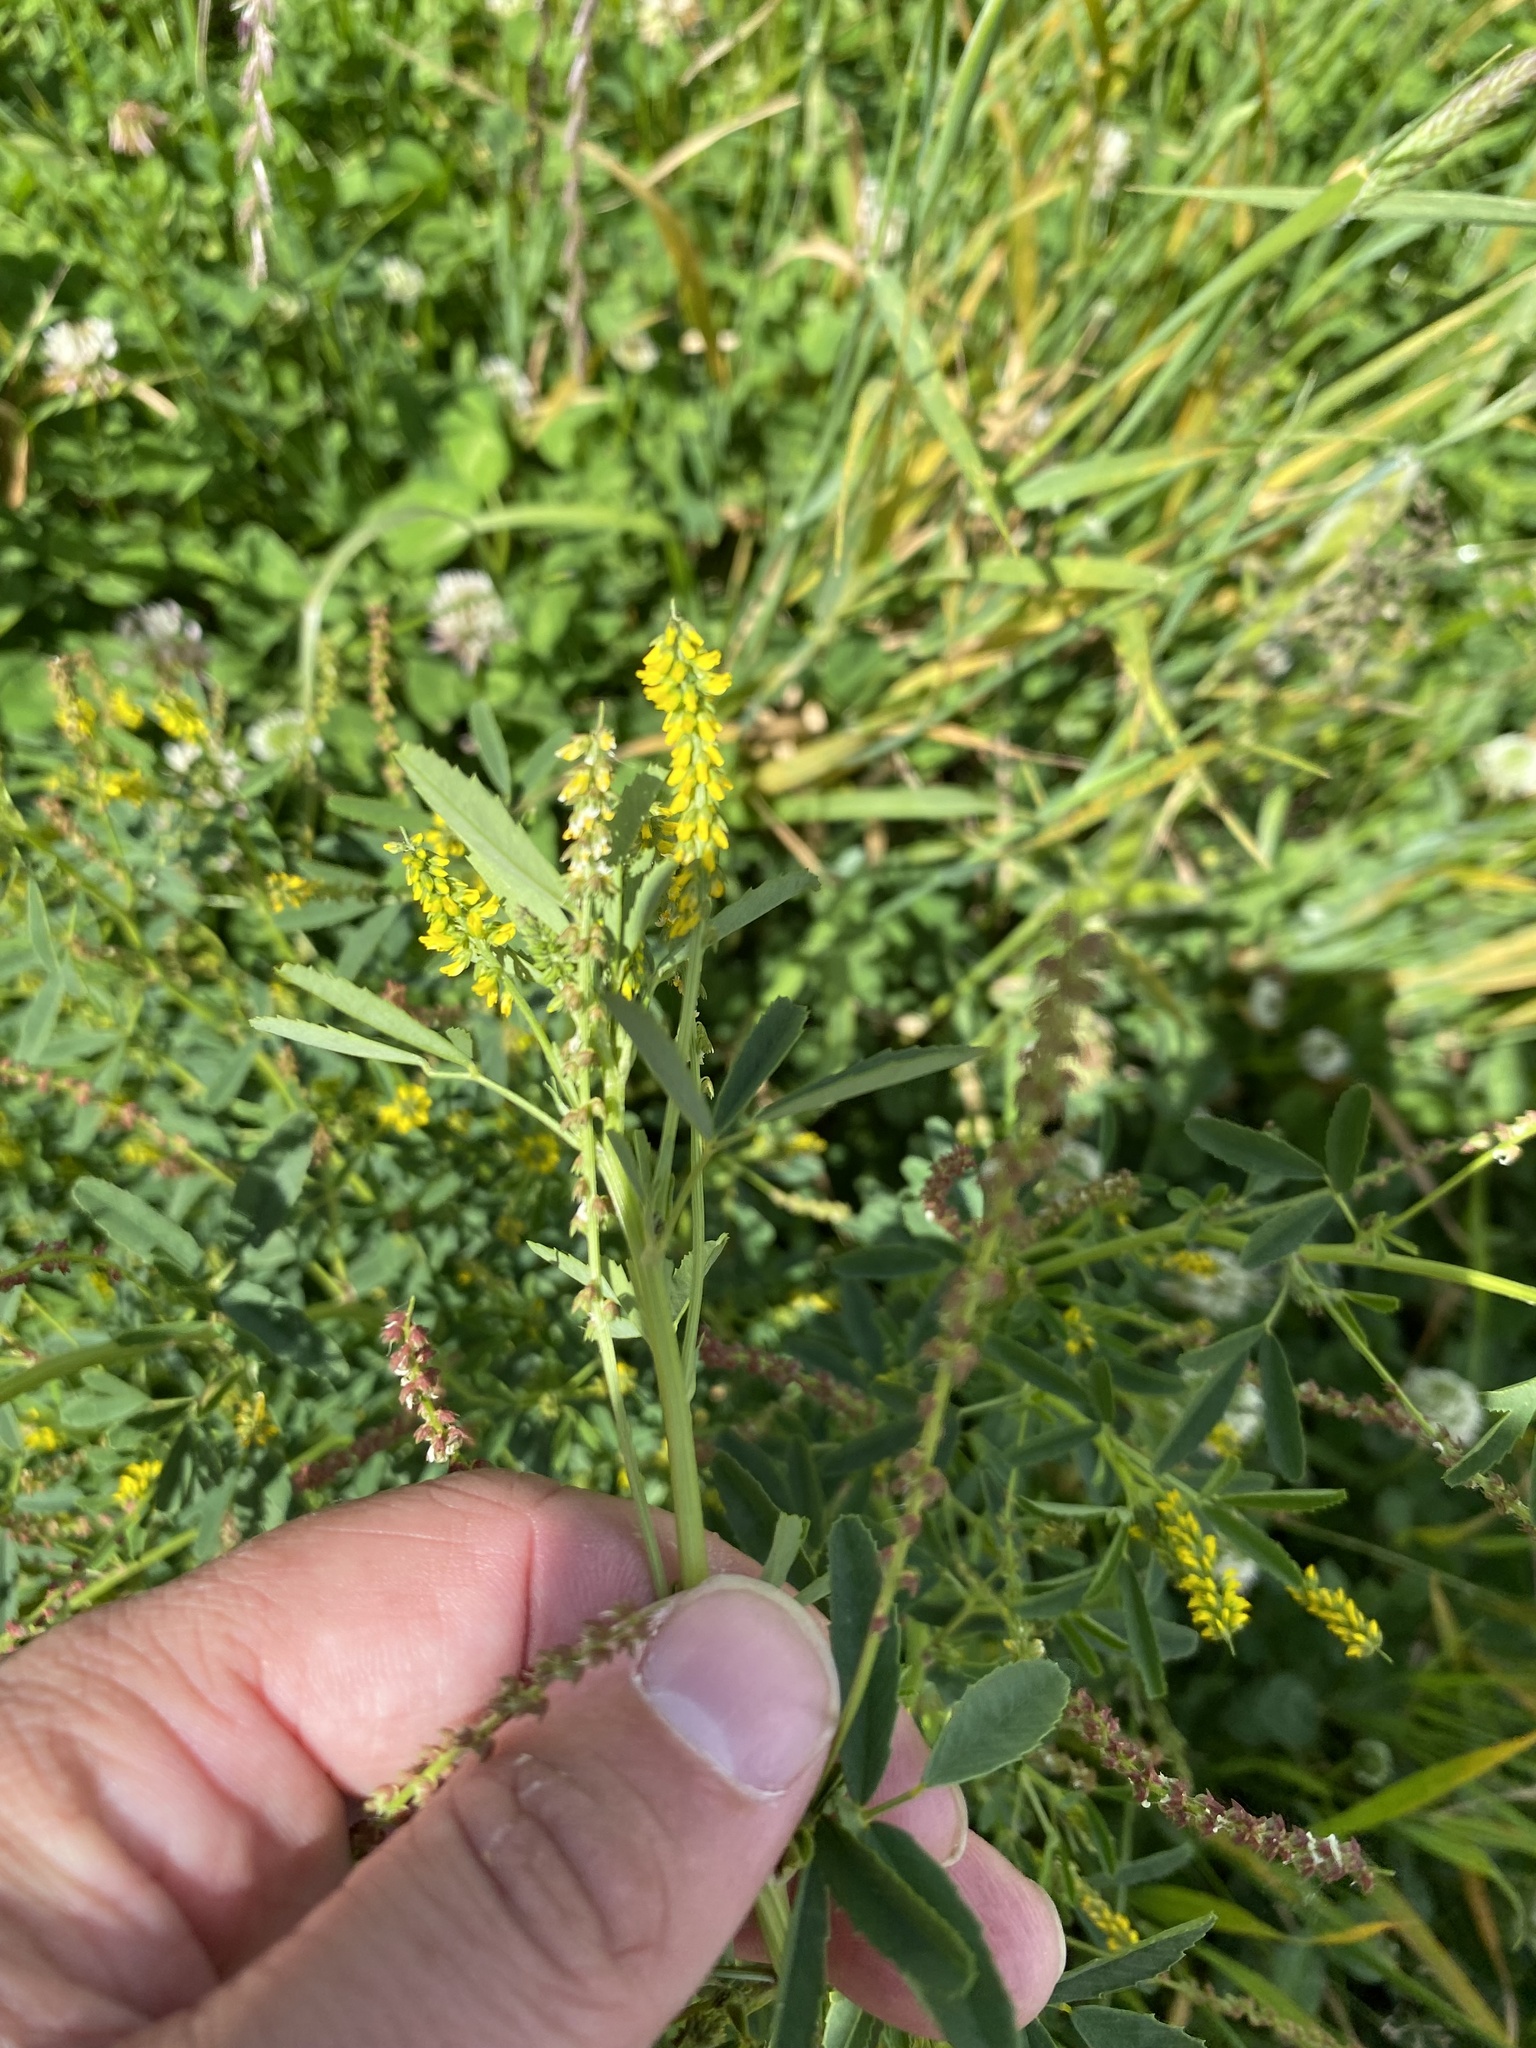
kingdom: Plantae
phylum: Tracheophyta
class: Magnoliopsida
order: Fabales
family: Fabaceae
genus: Melilotus
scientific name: Melilotus indicus
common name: Small melilot
